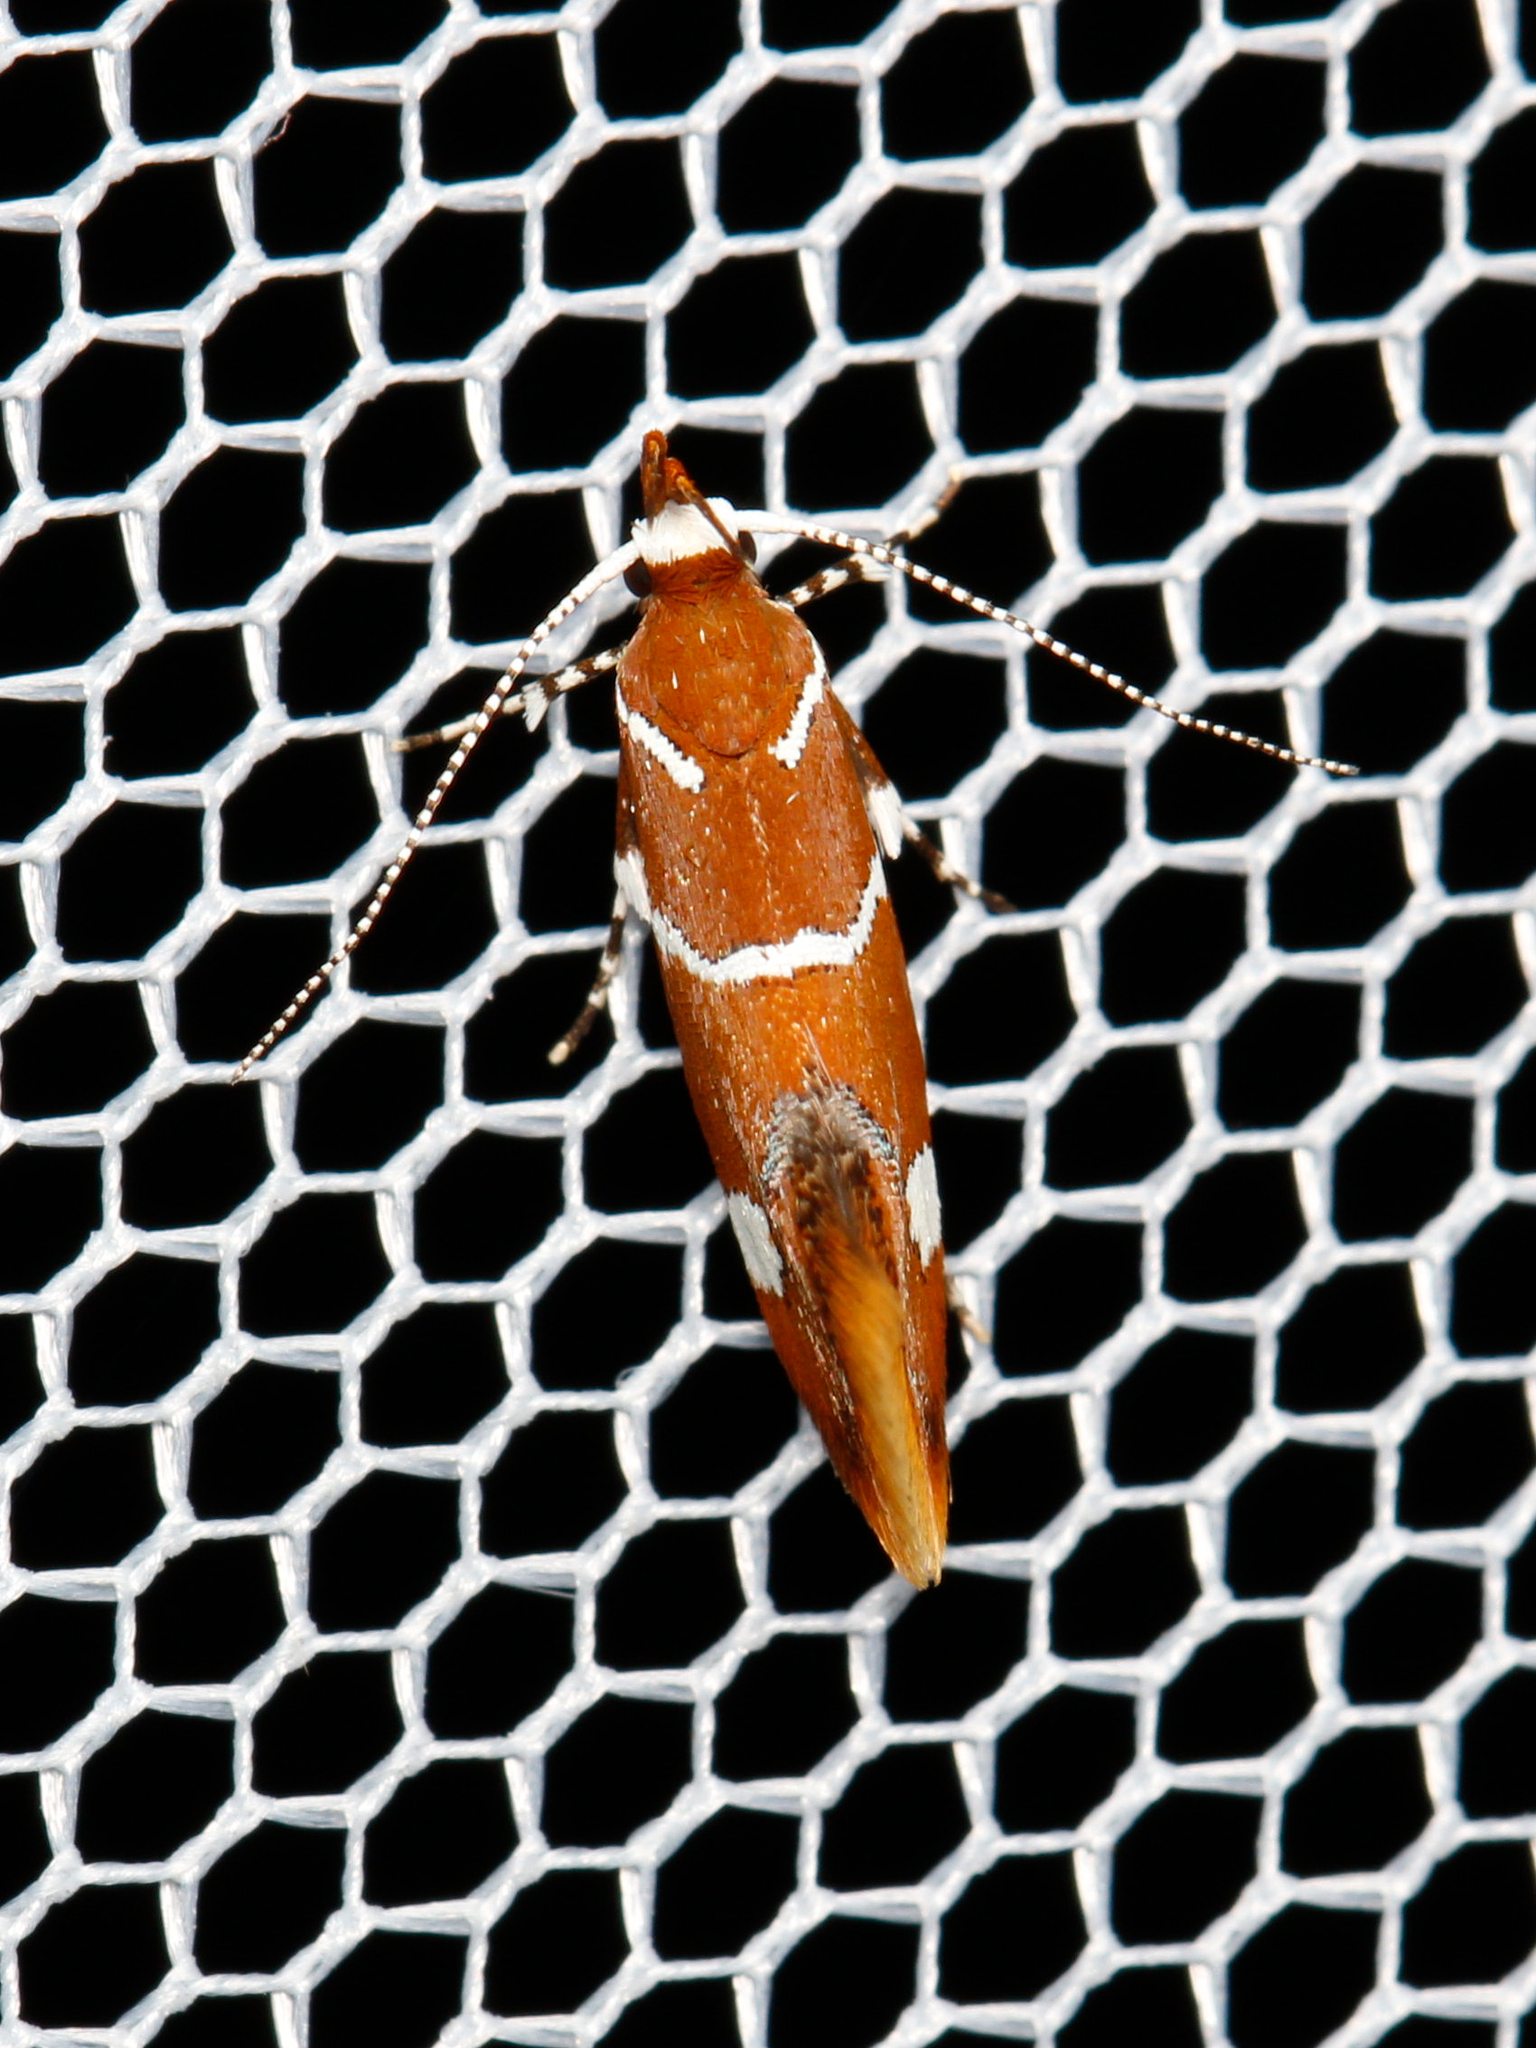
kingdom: Animalia
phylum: Arthropoda
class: Insecta
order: Lepidoptera
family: Oecophoridae
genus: Promalactis
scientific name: Promalactis suzukiella
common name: Moth
